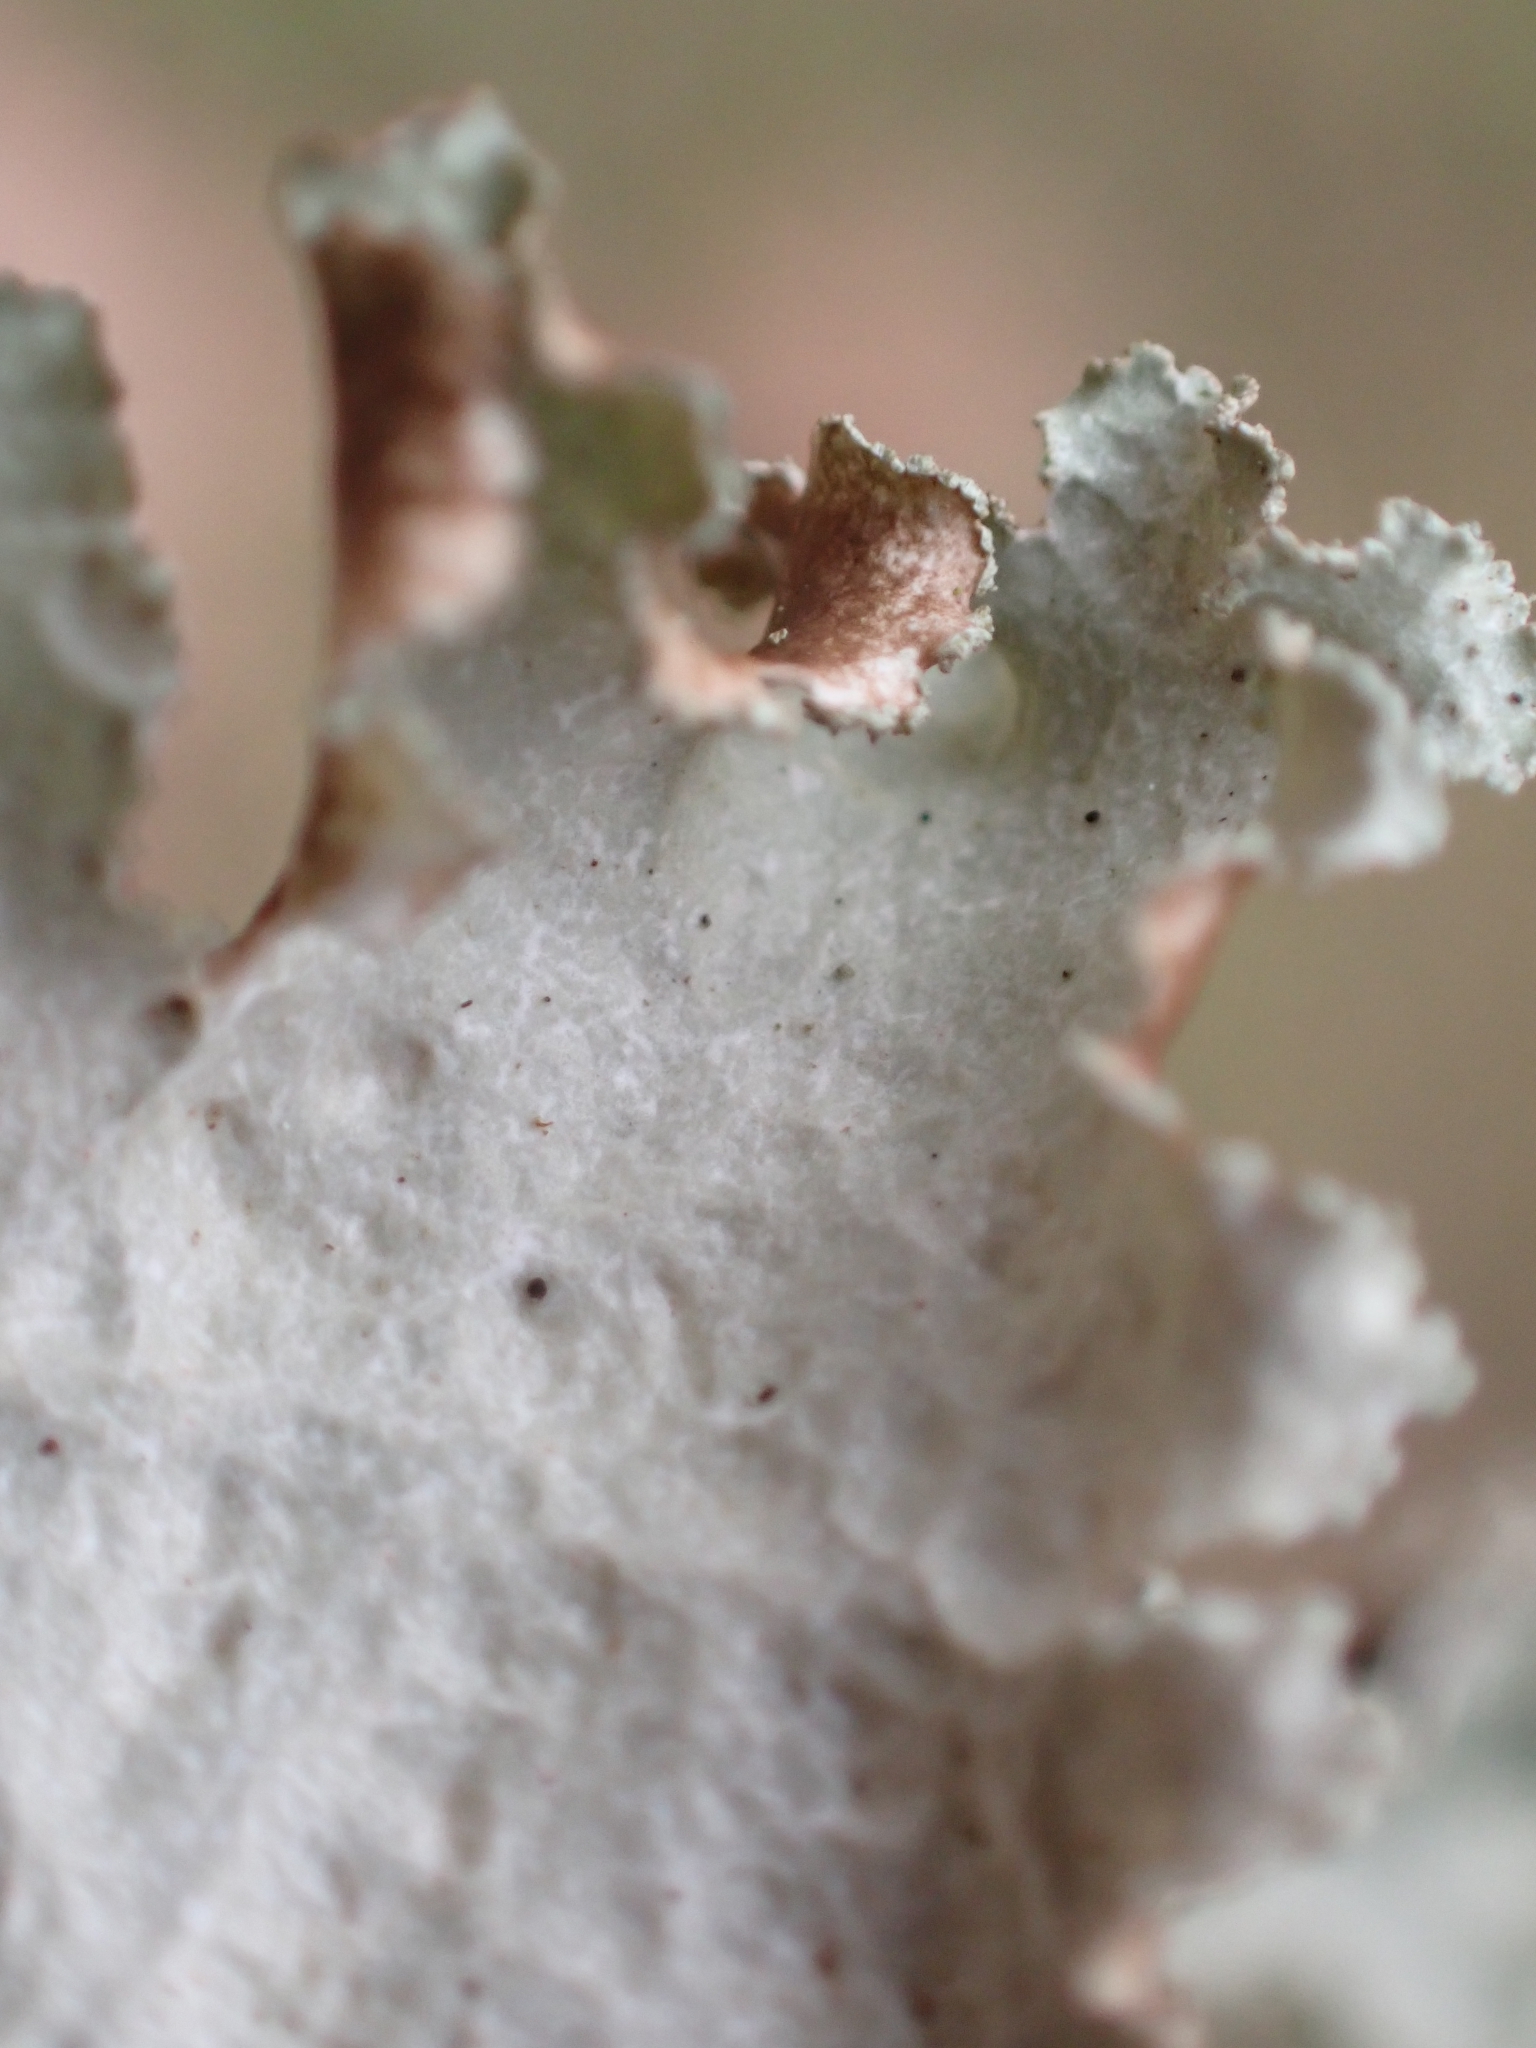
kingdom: Fungi
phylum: Ascomycota
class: Lecanoromycetes
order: Lecanorales
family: Parmeliaceae
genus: Platismatia
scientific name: Platismatia glauca
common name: Varied rag lichen
